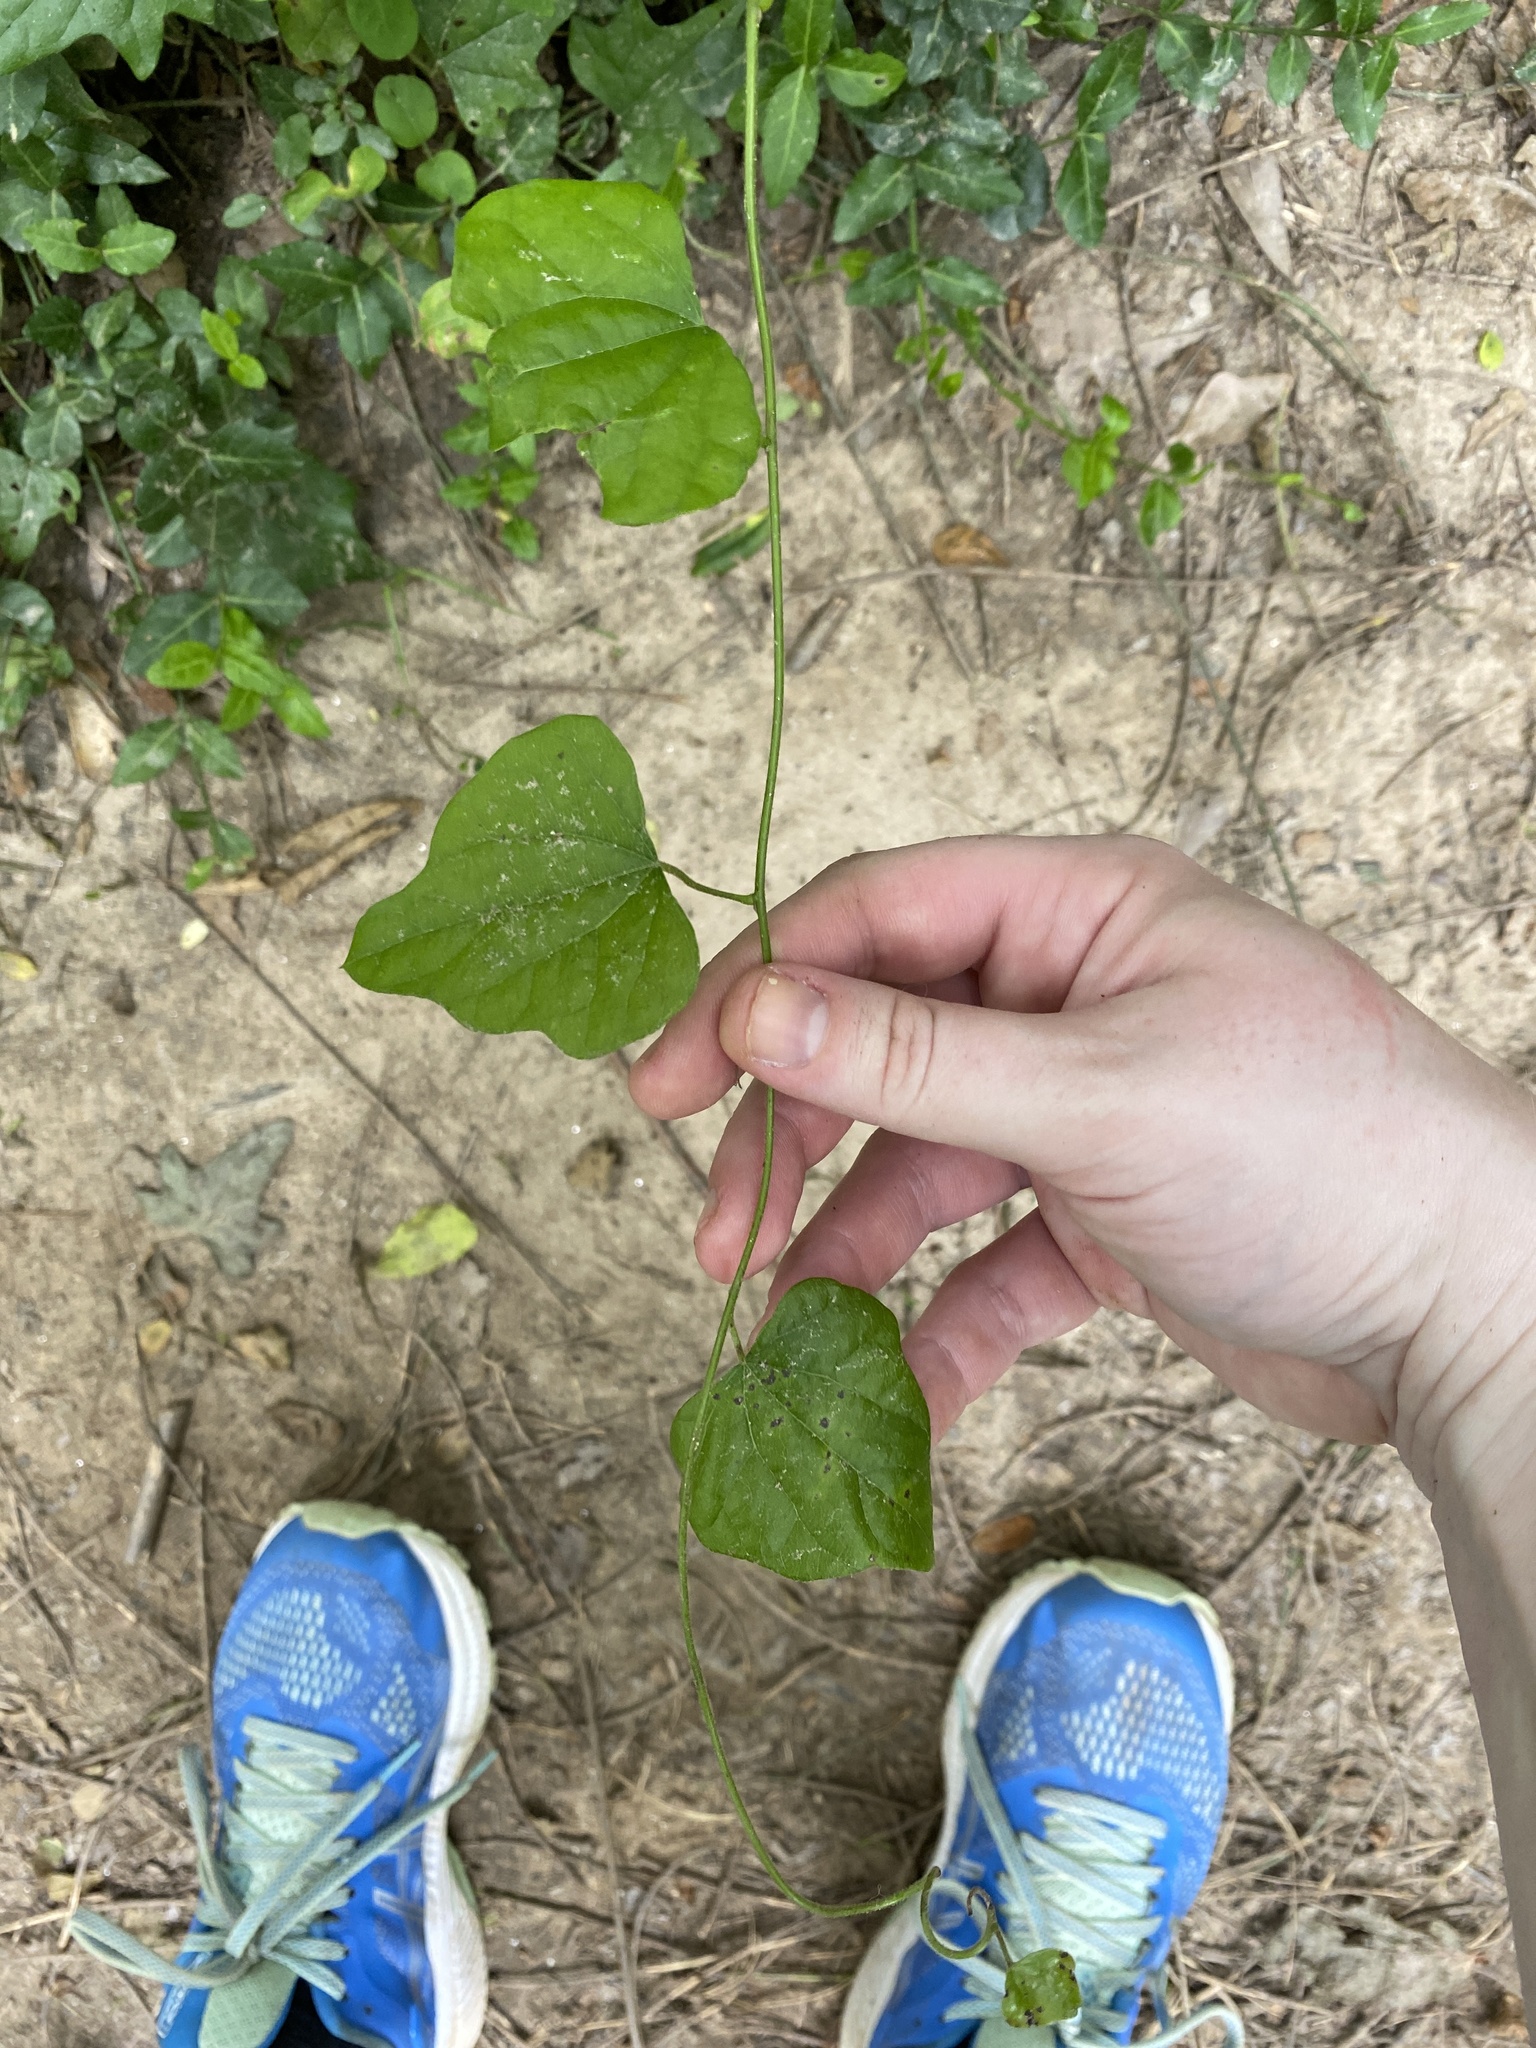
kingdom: Plantae
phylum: Tracheophyta
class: Magnoliopsida
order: Ranunculales
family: Menispermaceae
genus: Cocculus
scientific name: Cocculus carolinus
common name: Carolina moonseed
